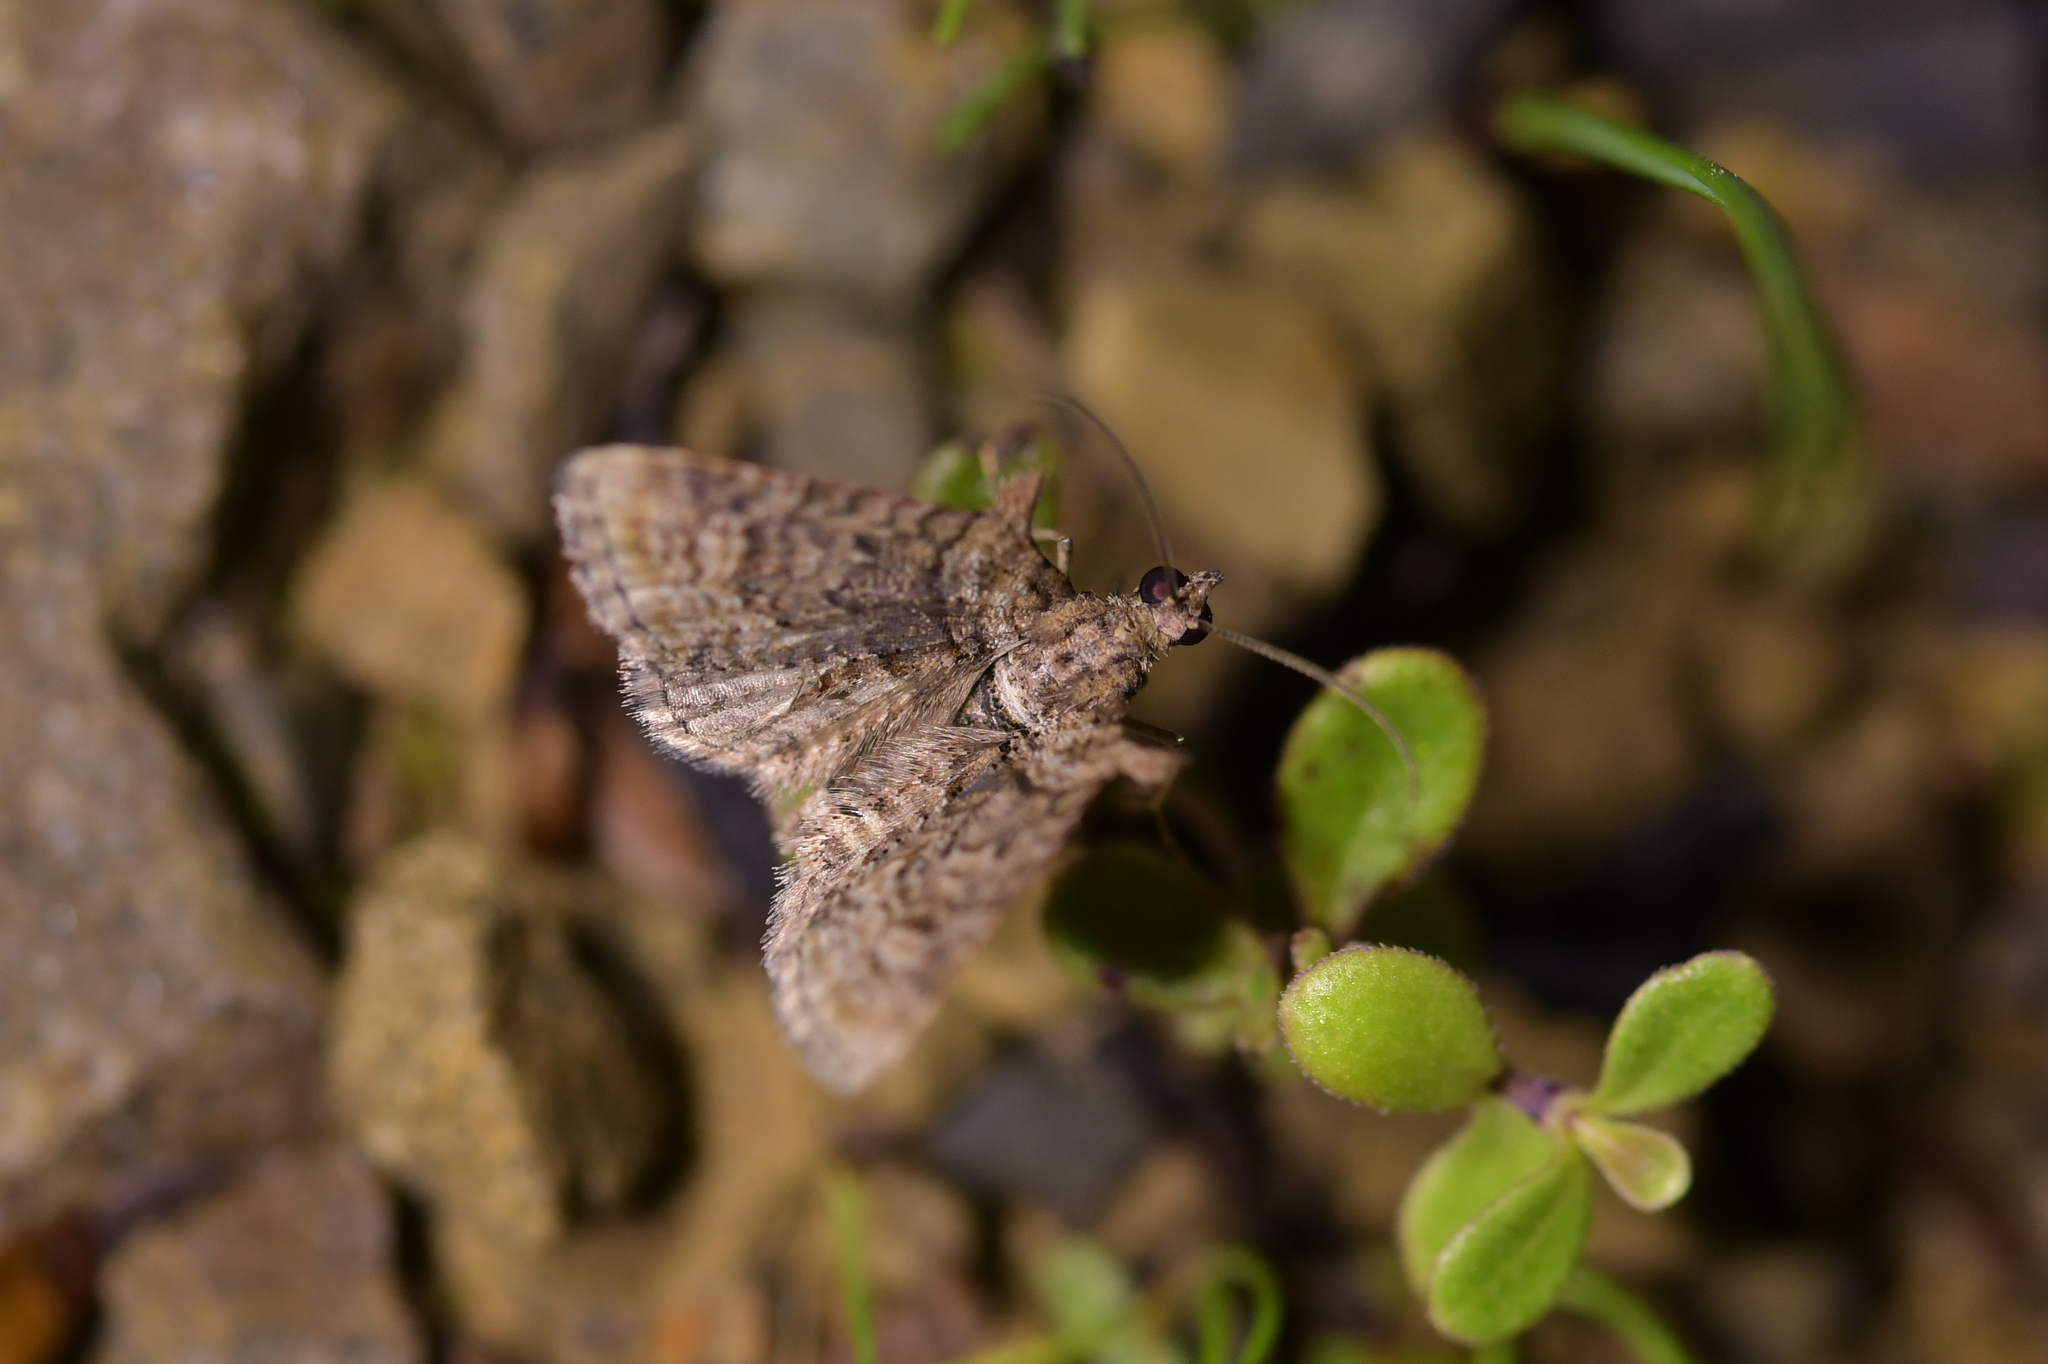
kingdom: Animalia
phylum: Arthropoda
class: Insecta
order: Lepidoptera
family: Geometridae
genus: Phrissogonus
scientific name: Phrissogonus laticostata
